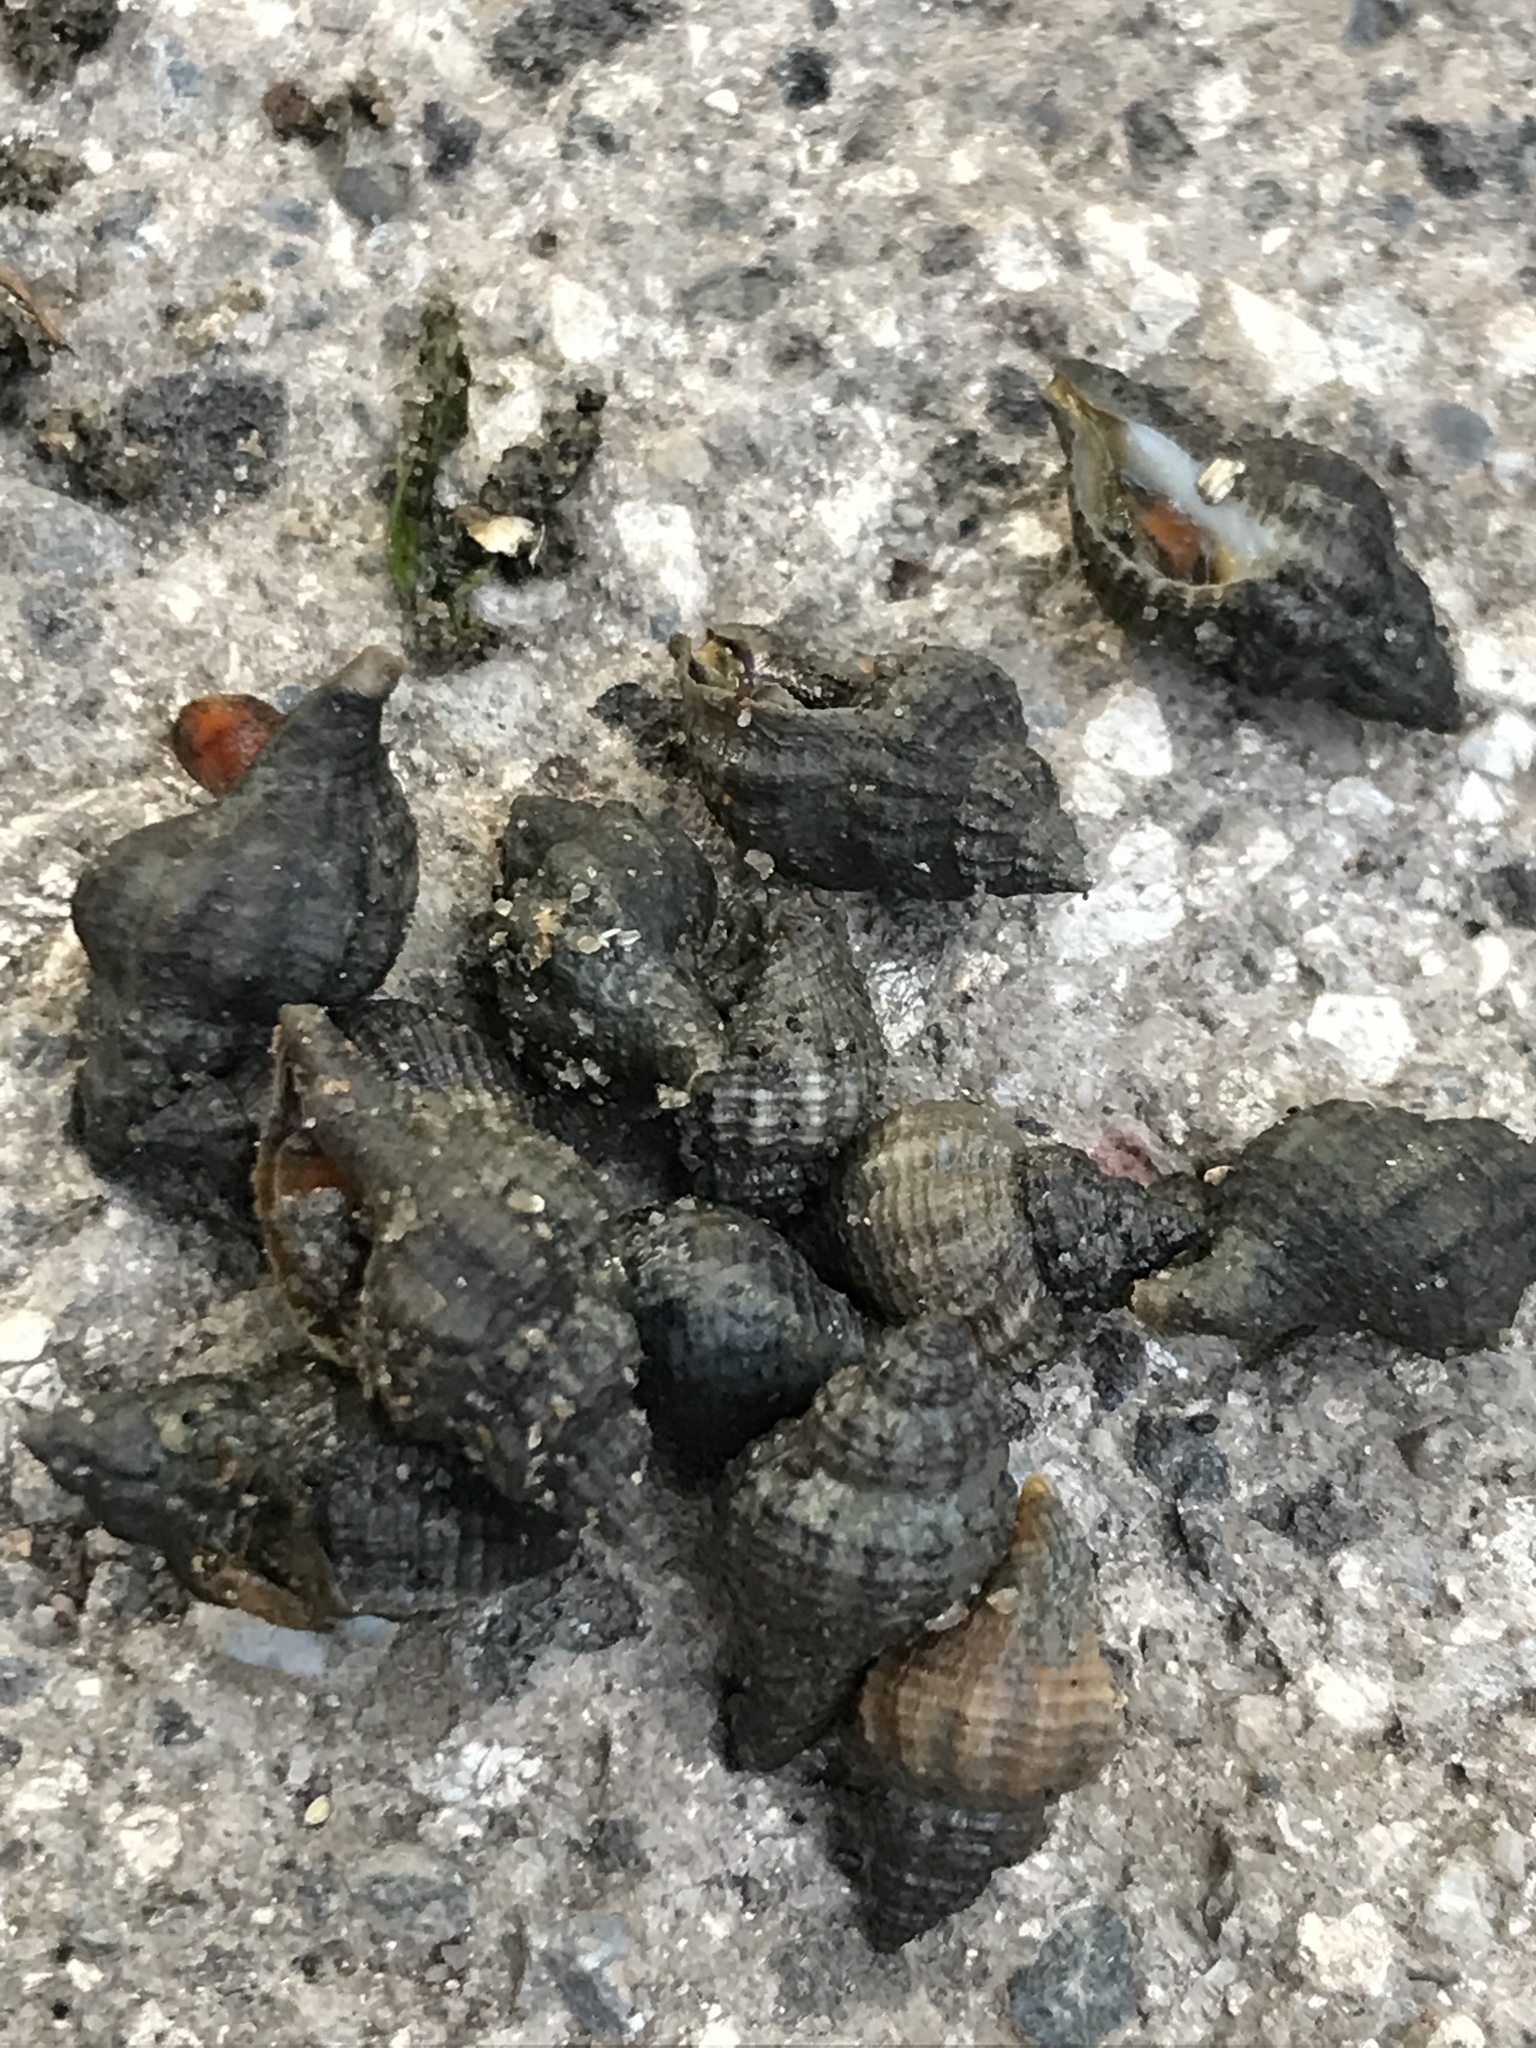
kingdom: Animalia
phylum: Mollusca
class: Gastropoda
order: Neogastropoda
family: Muricidae
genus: Urosalpinx
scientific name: Urosalpinx cinerea
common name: American sting winkle
